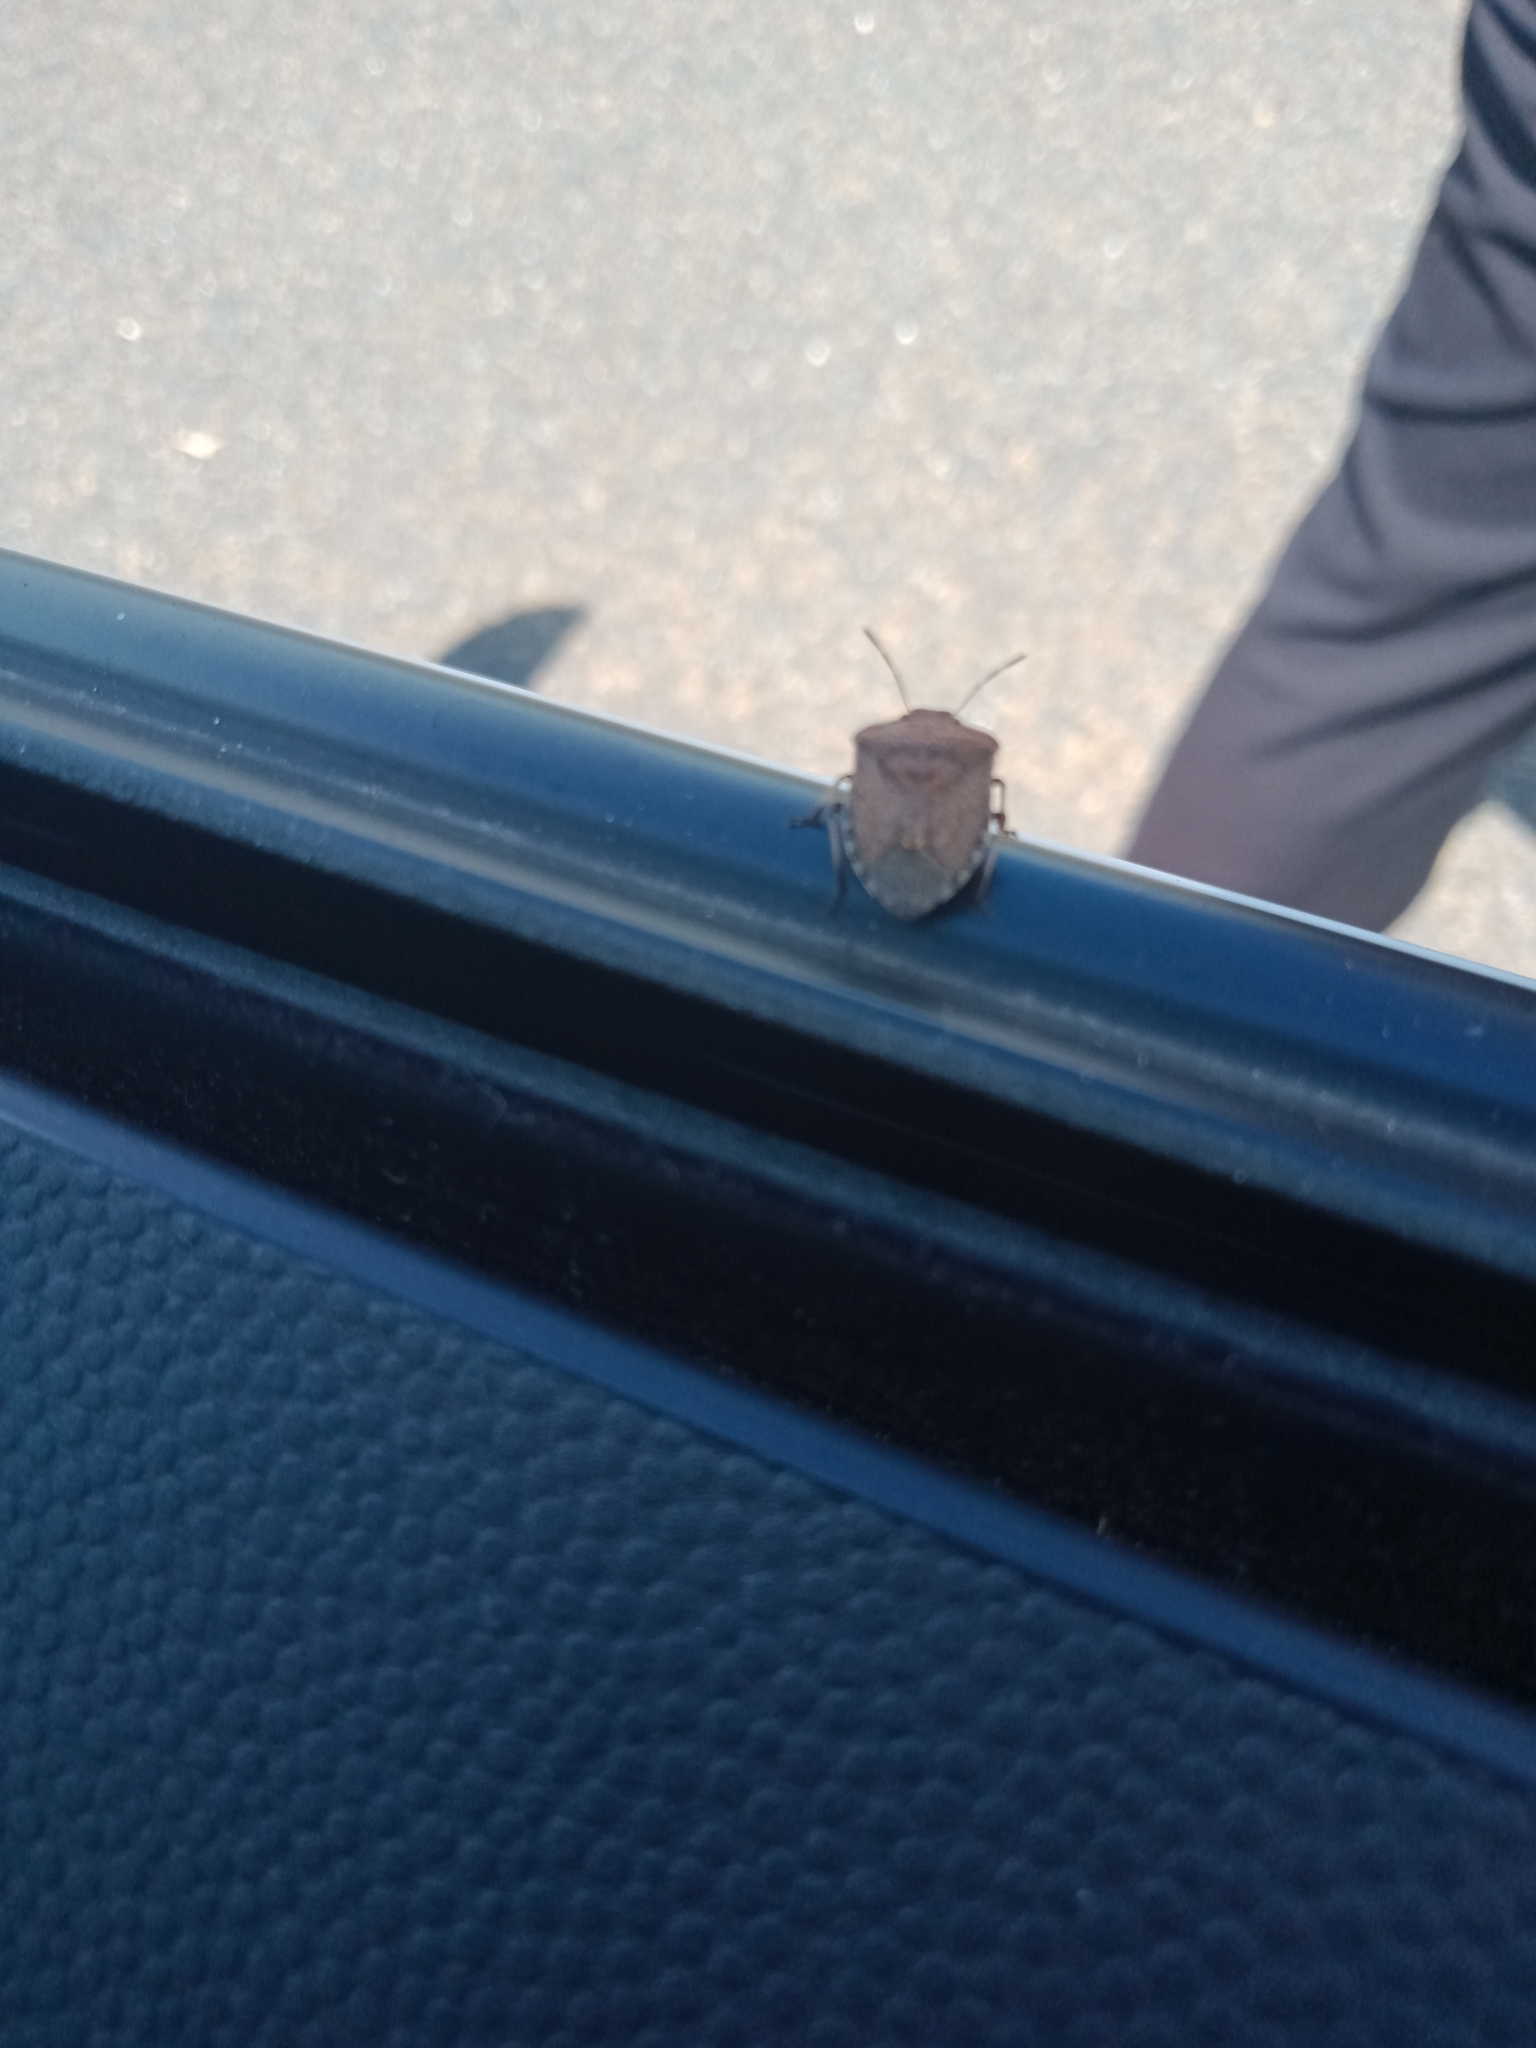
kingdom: Animalia
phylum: Arthropoda
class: Insecta
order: Hemiptera
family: Pentatomidae
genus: Dictyotus
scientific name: Dictyotus caenosus
